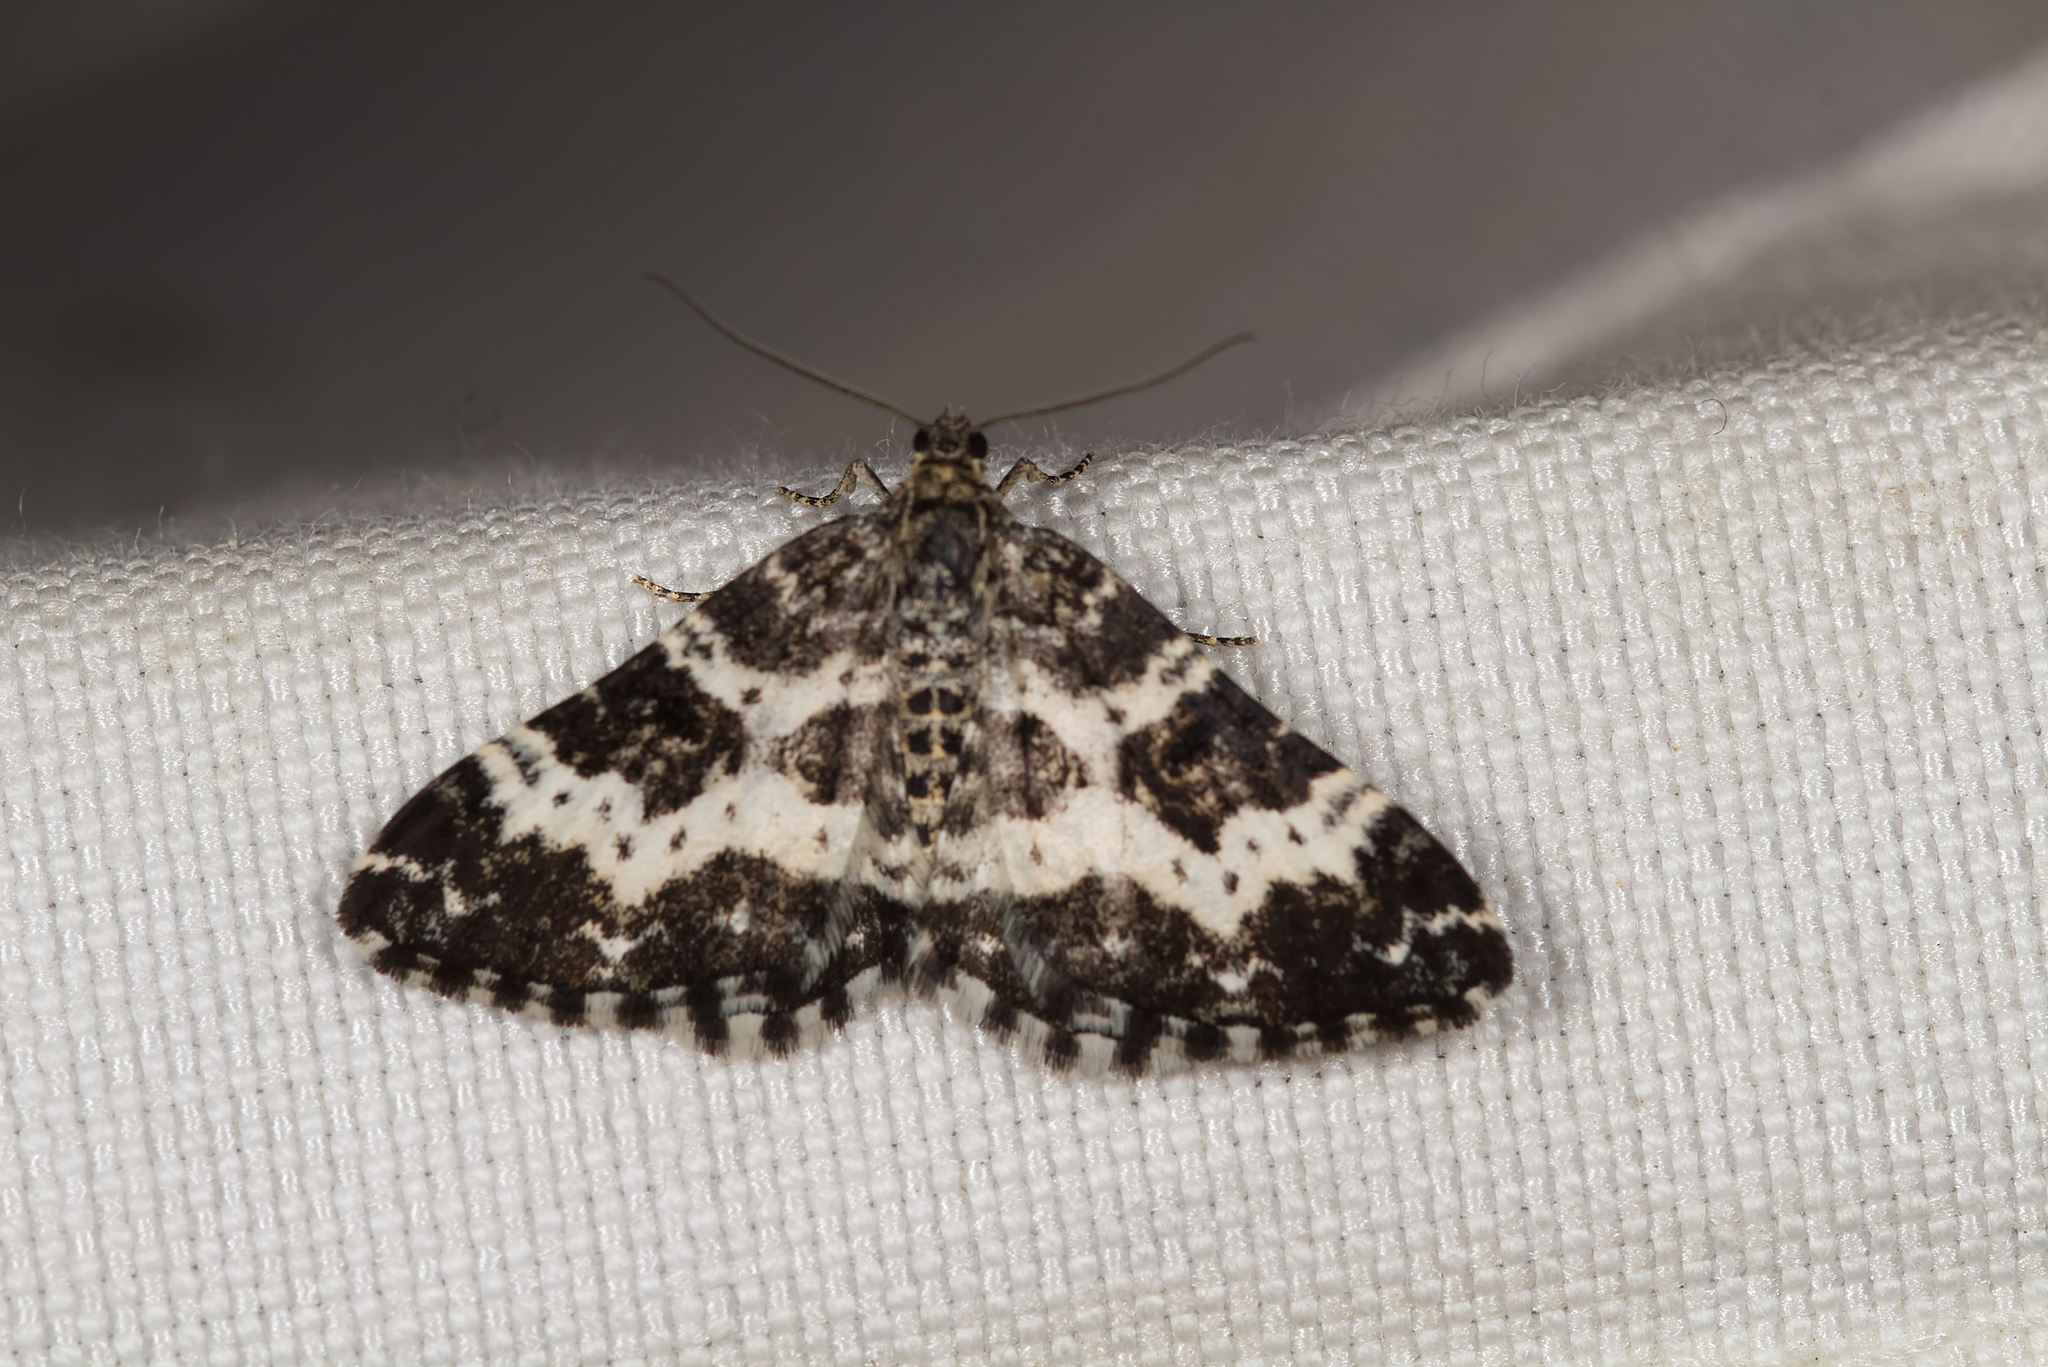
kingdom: Animalia
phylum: Arthropoda
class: Insecta
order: Lepidoptera
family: Geometridae
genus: Epirrhoe
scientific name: Epirrhoe tristata
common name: Small argent & sable
